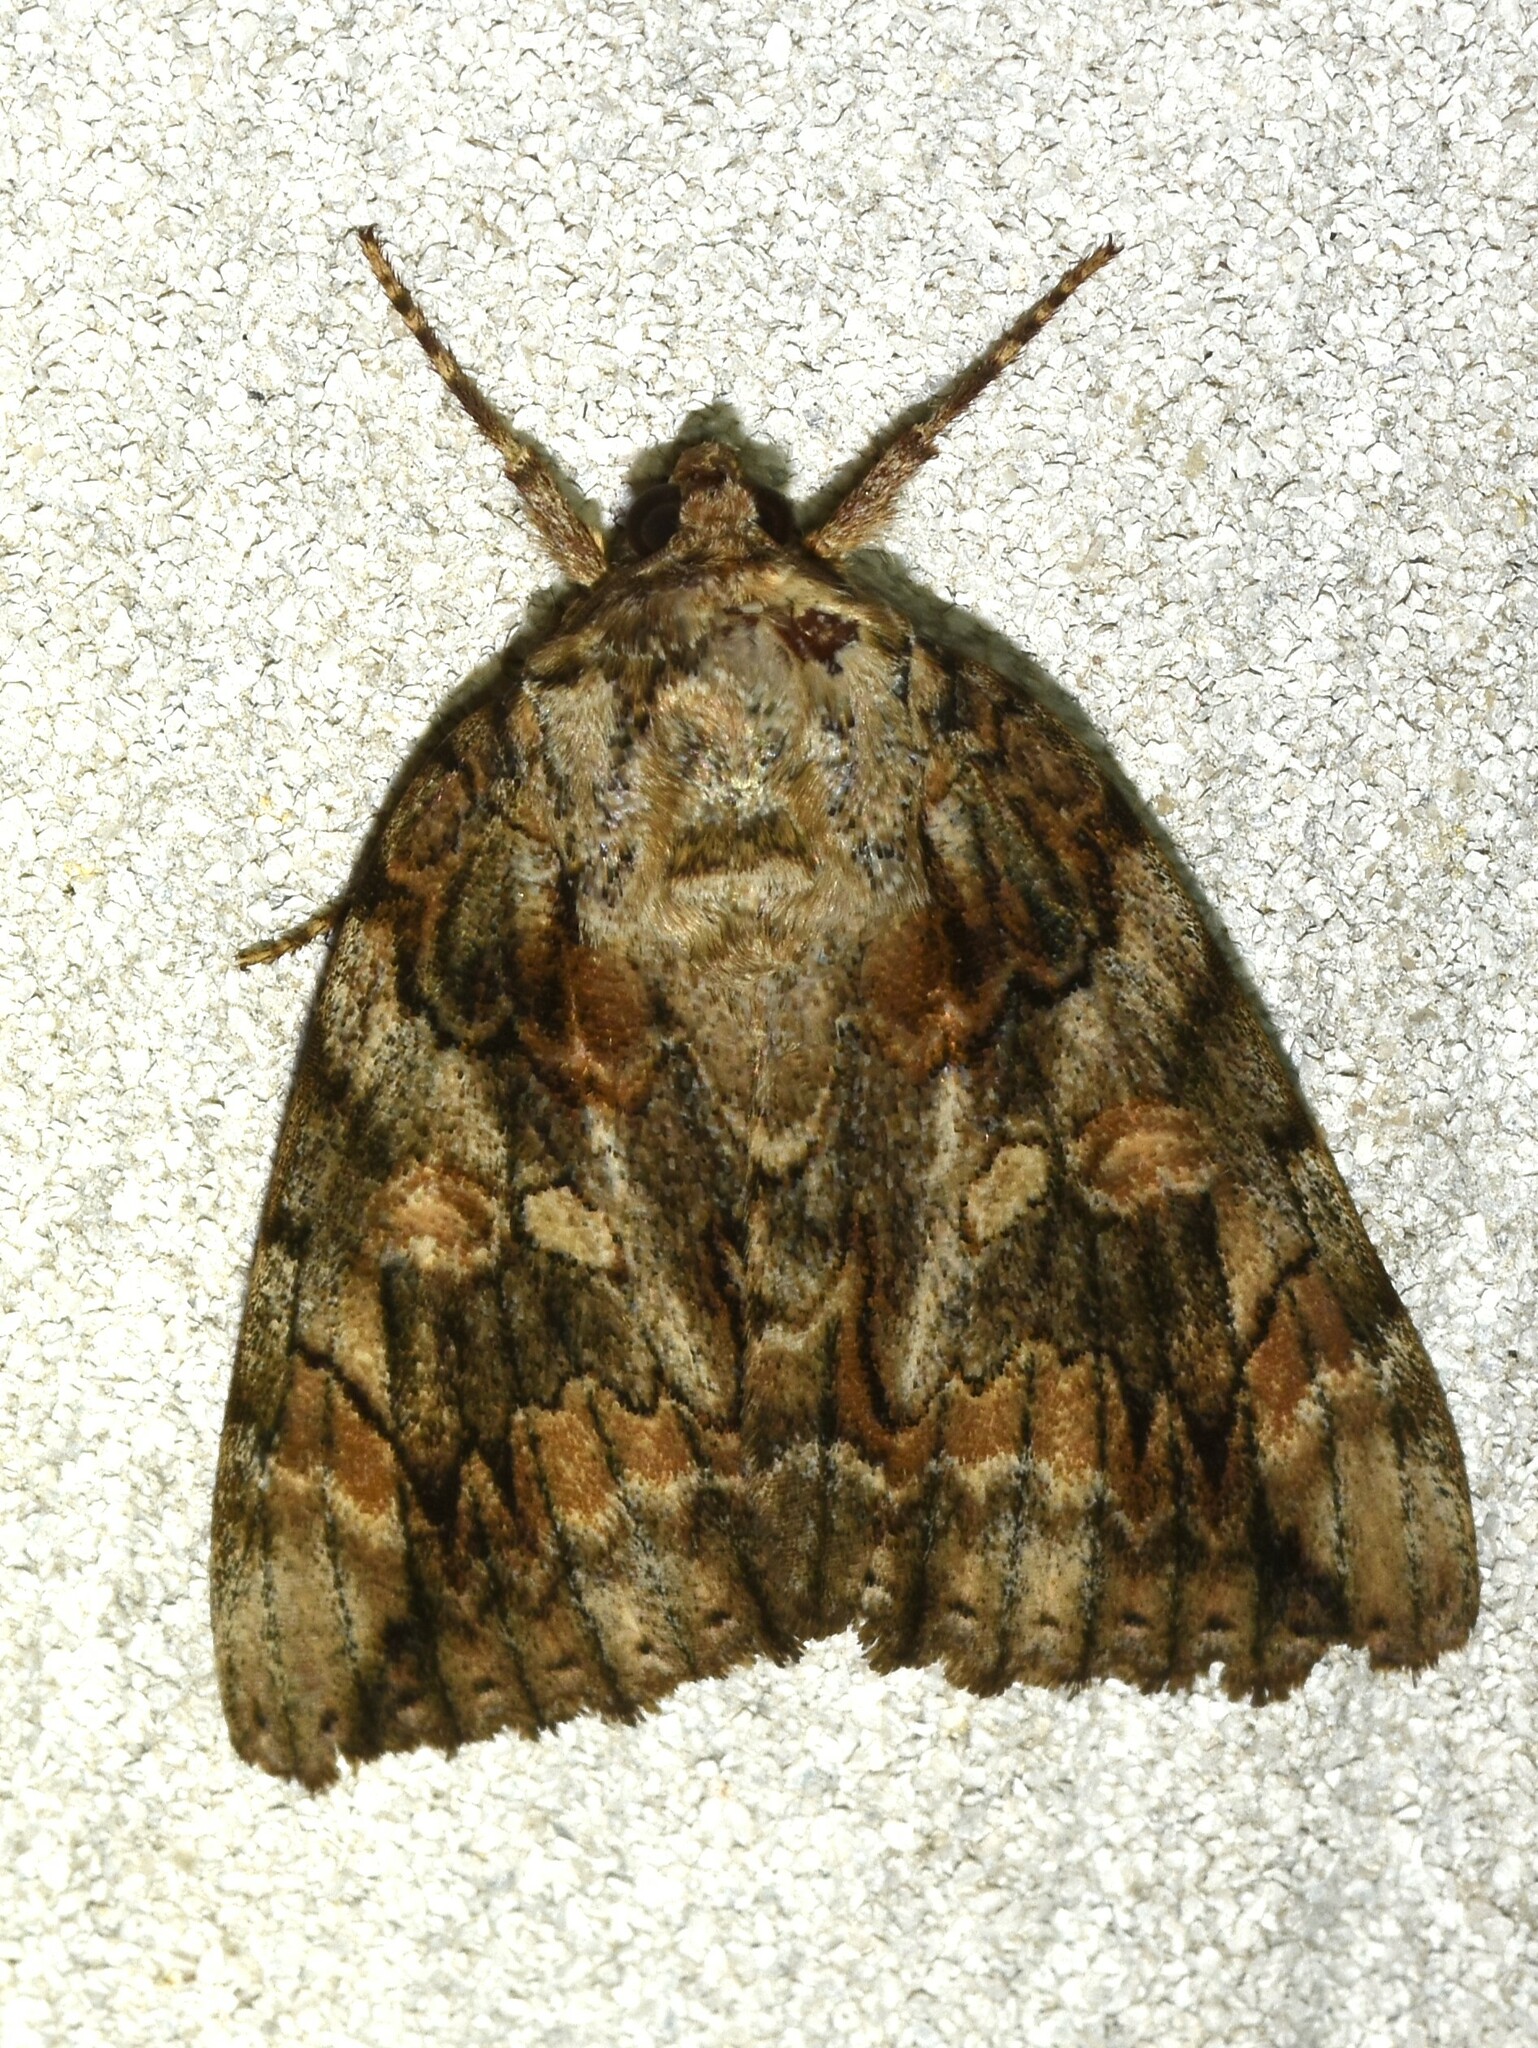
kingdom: Animalia
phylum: Arthropoda
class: Insecta
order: Lepidoptera
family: Erebidae
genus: Catocala
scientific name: Catocala neogama
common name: Bride underwing
